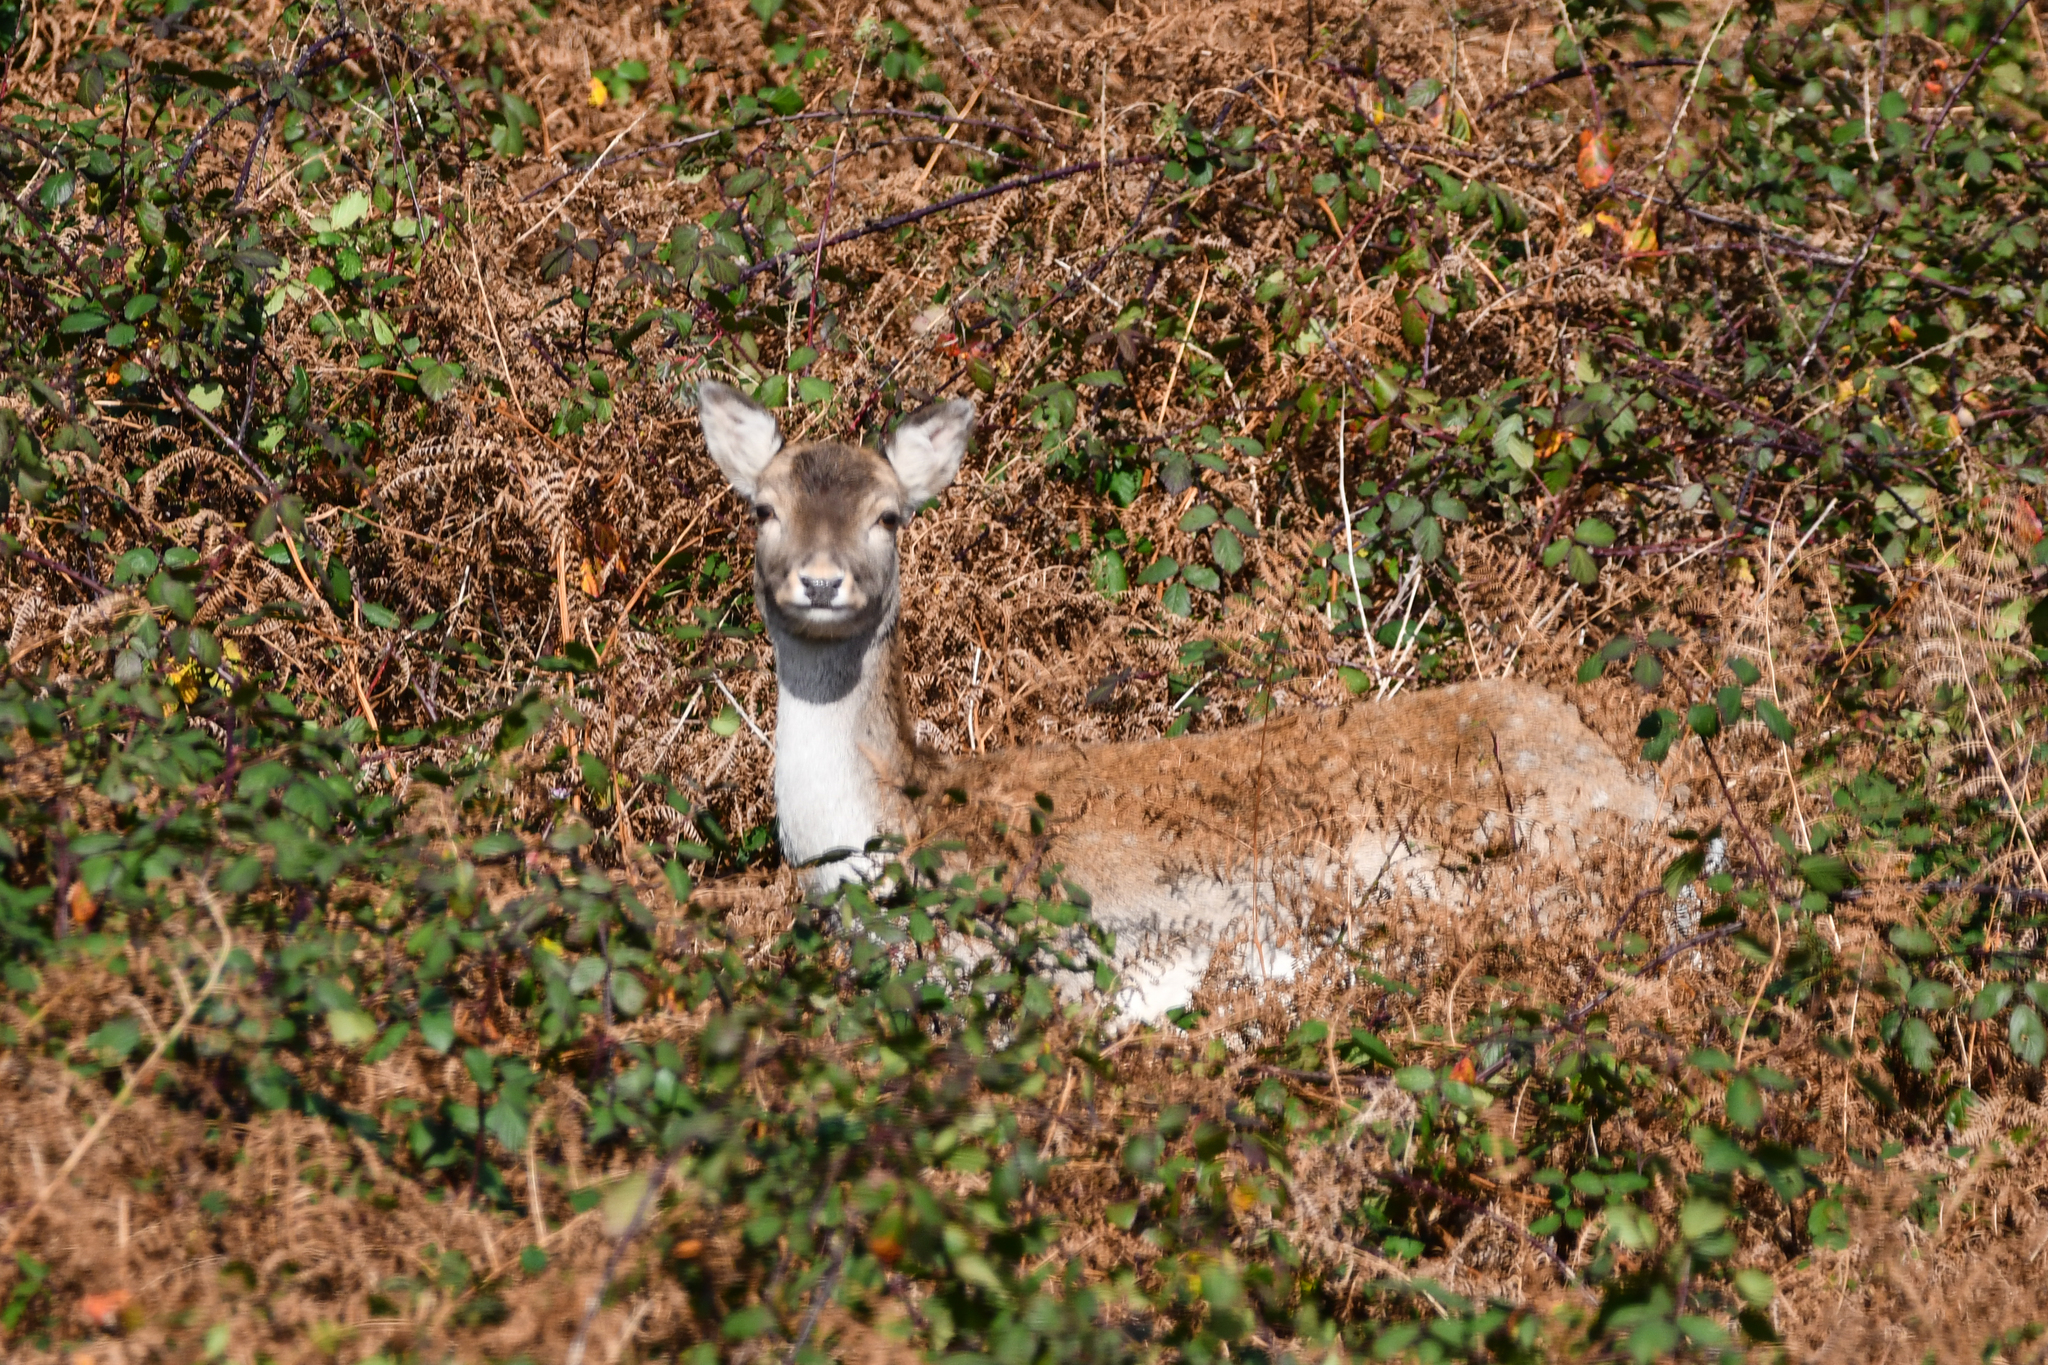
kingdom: Animalia
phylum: Chordata
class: Mammalia
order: Artiodactyla
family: Cervidae
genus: Dama
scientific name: Dama dama
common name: Fallow deer
